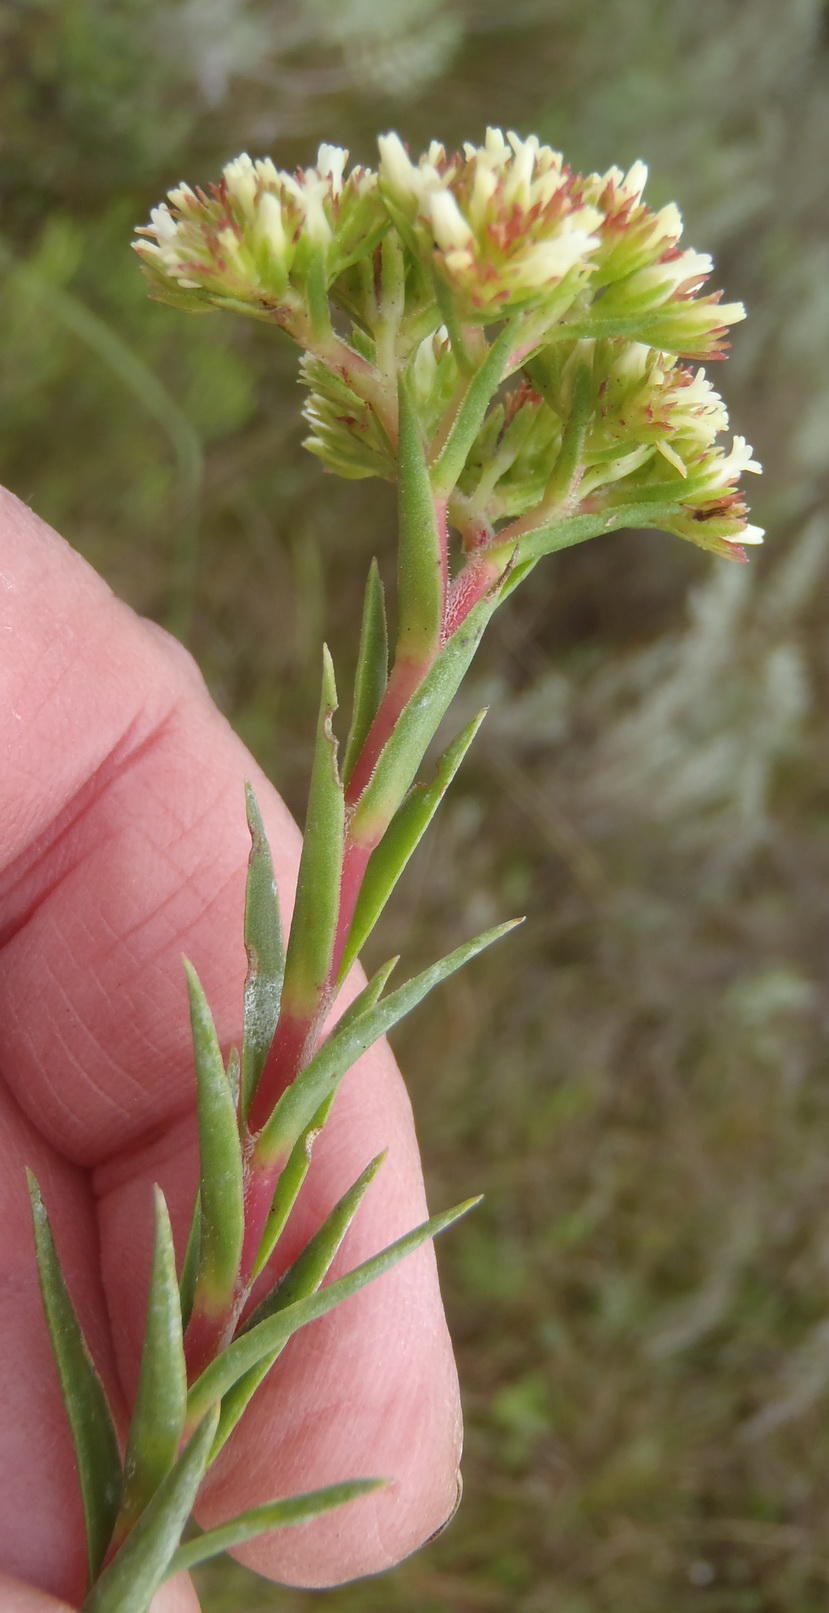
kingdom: Plantae
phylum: Tracheophyta
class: Magnoliopsida
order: Saxifragales
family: Crassulaceae
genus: Crassula
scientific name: Crassula subulata
